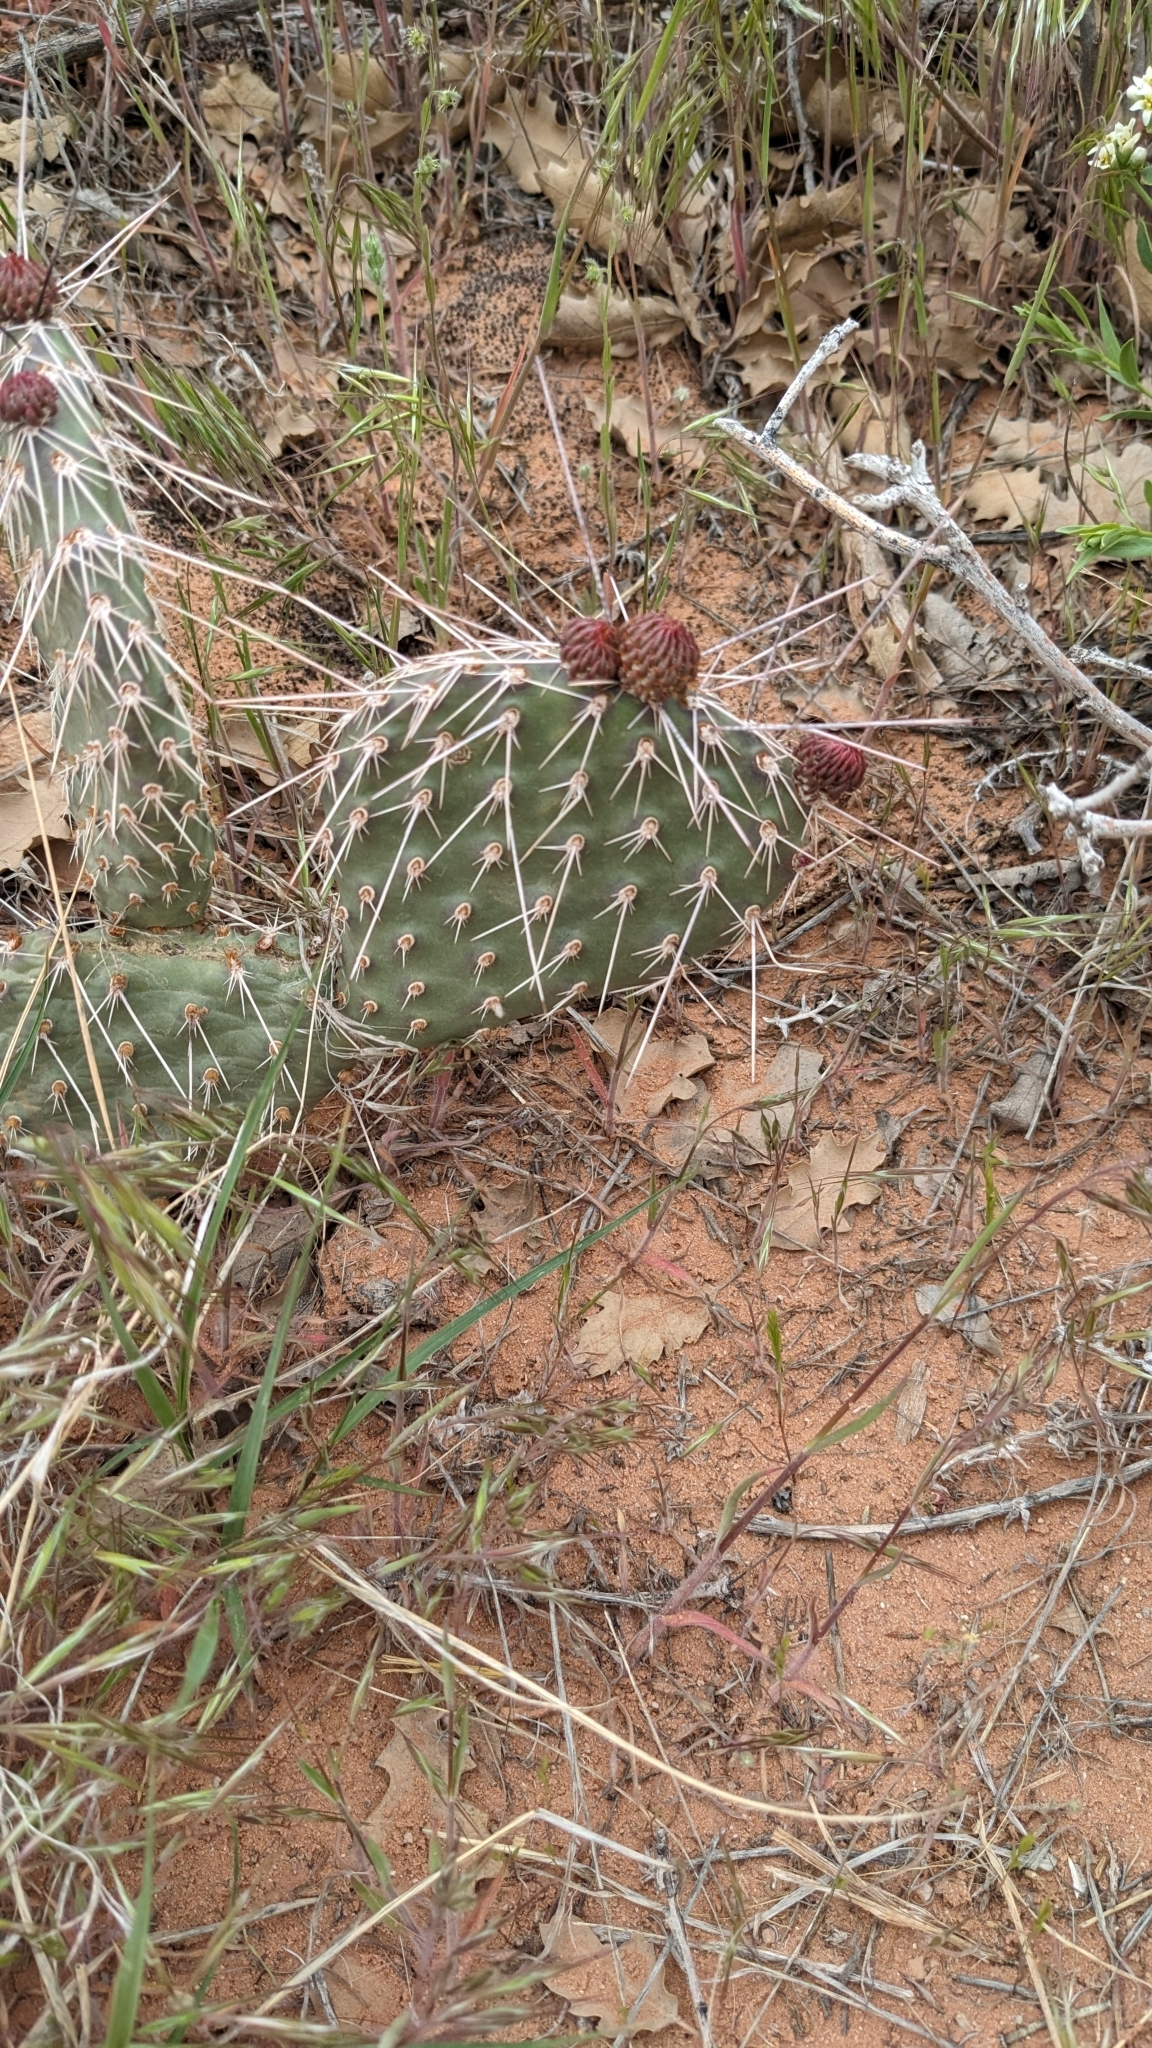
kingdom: Plantae
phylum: Tracheophyta
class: Magnoliopsida
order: Caryophyllales
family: Cactaceae
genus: Opuntia
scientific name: Opuntia polyacantha
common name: Plains prickly-pear
